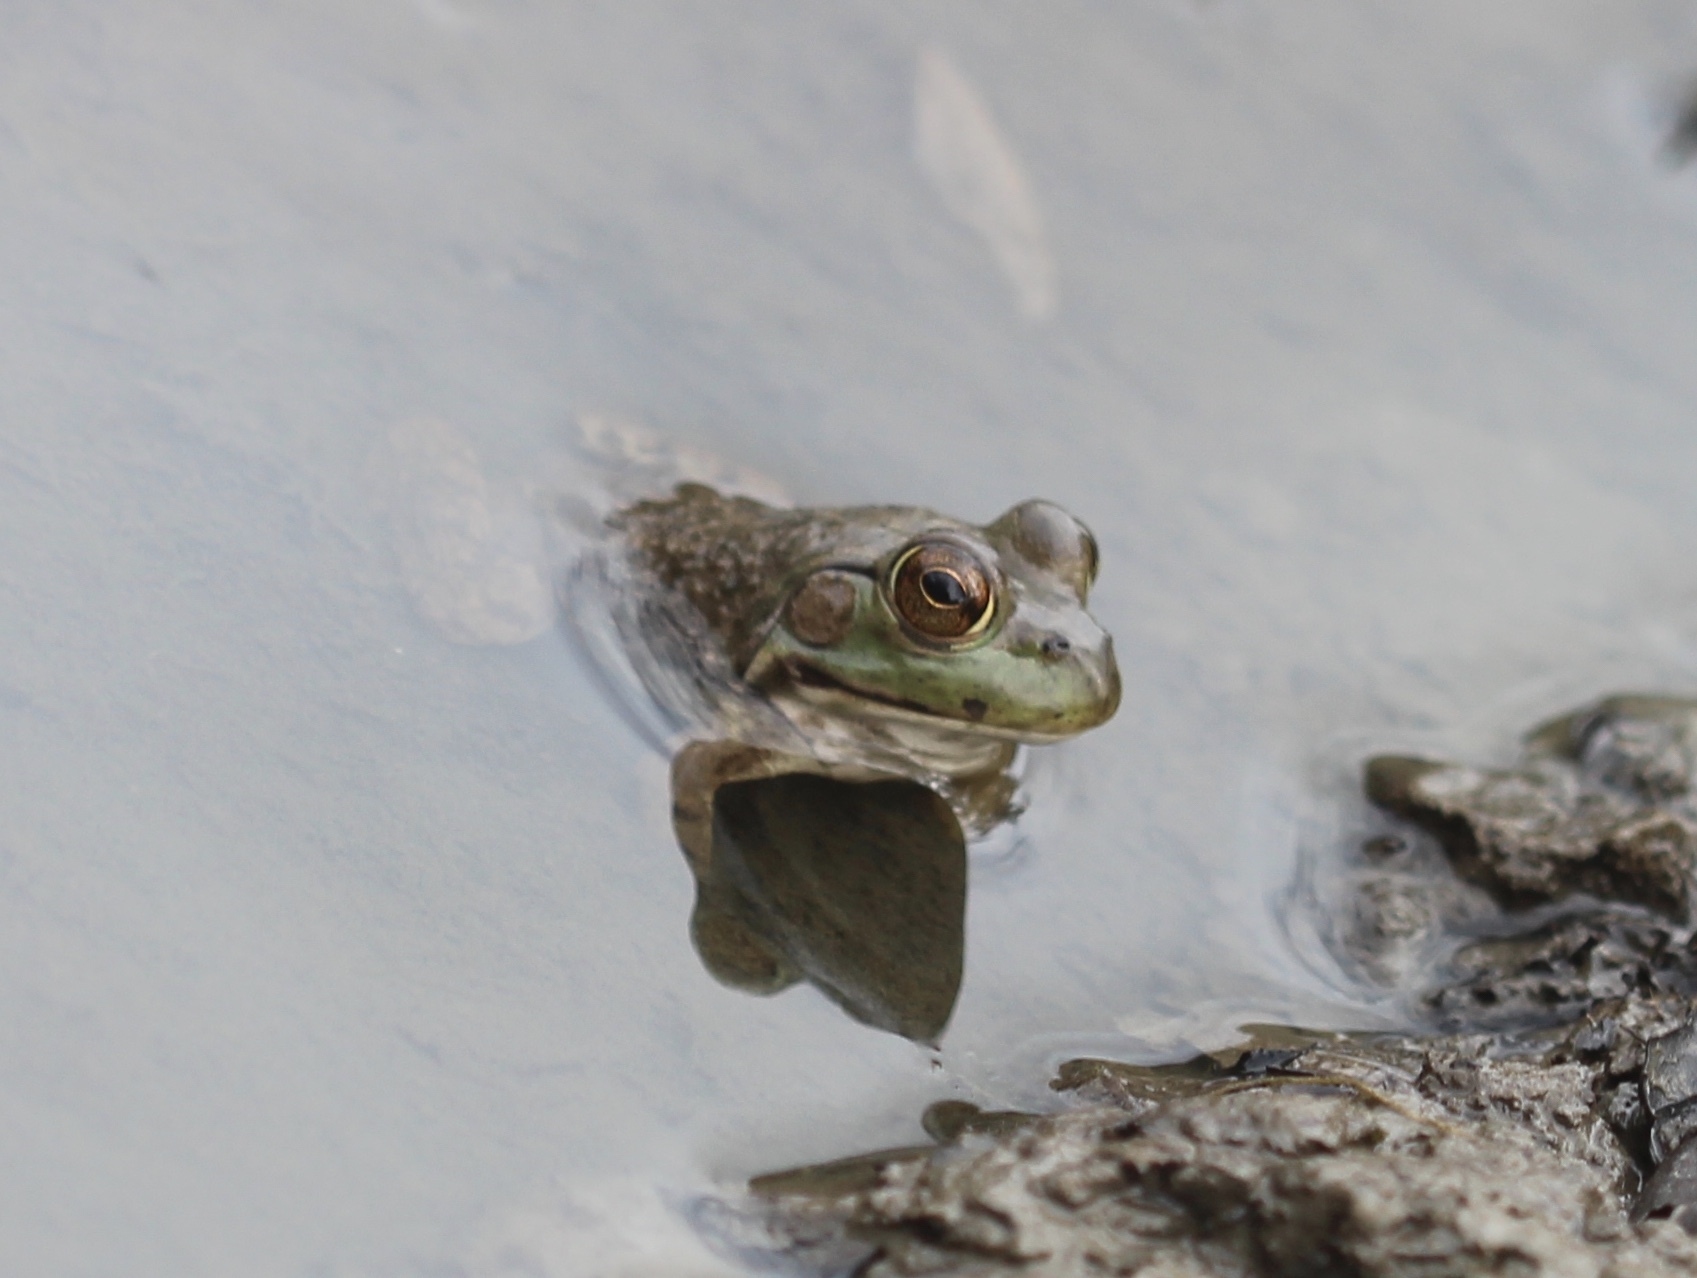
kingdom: Animalia
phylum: Chordata
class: Amphibia
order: Anura
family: Ranidae
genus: Lithobates
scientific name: Lithobates catesbeianus
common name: American bullfrog
